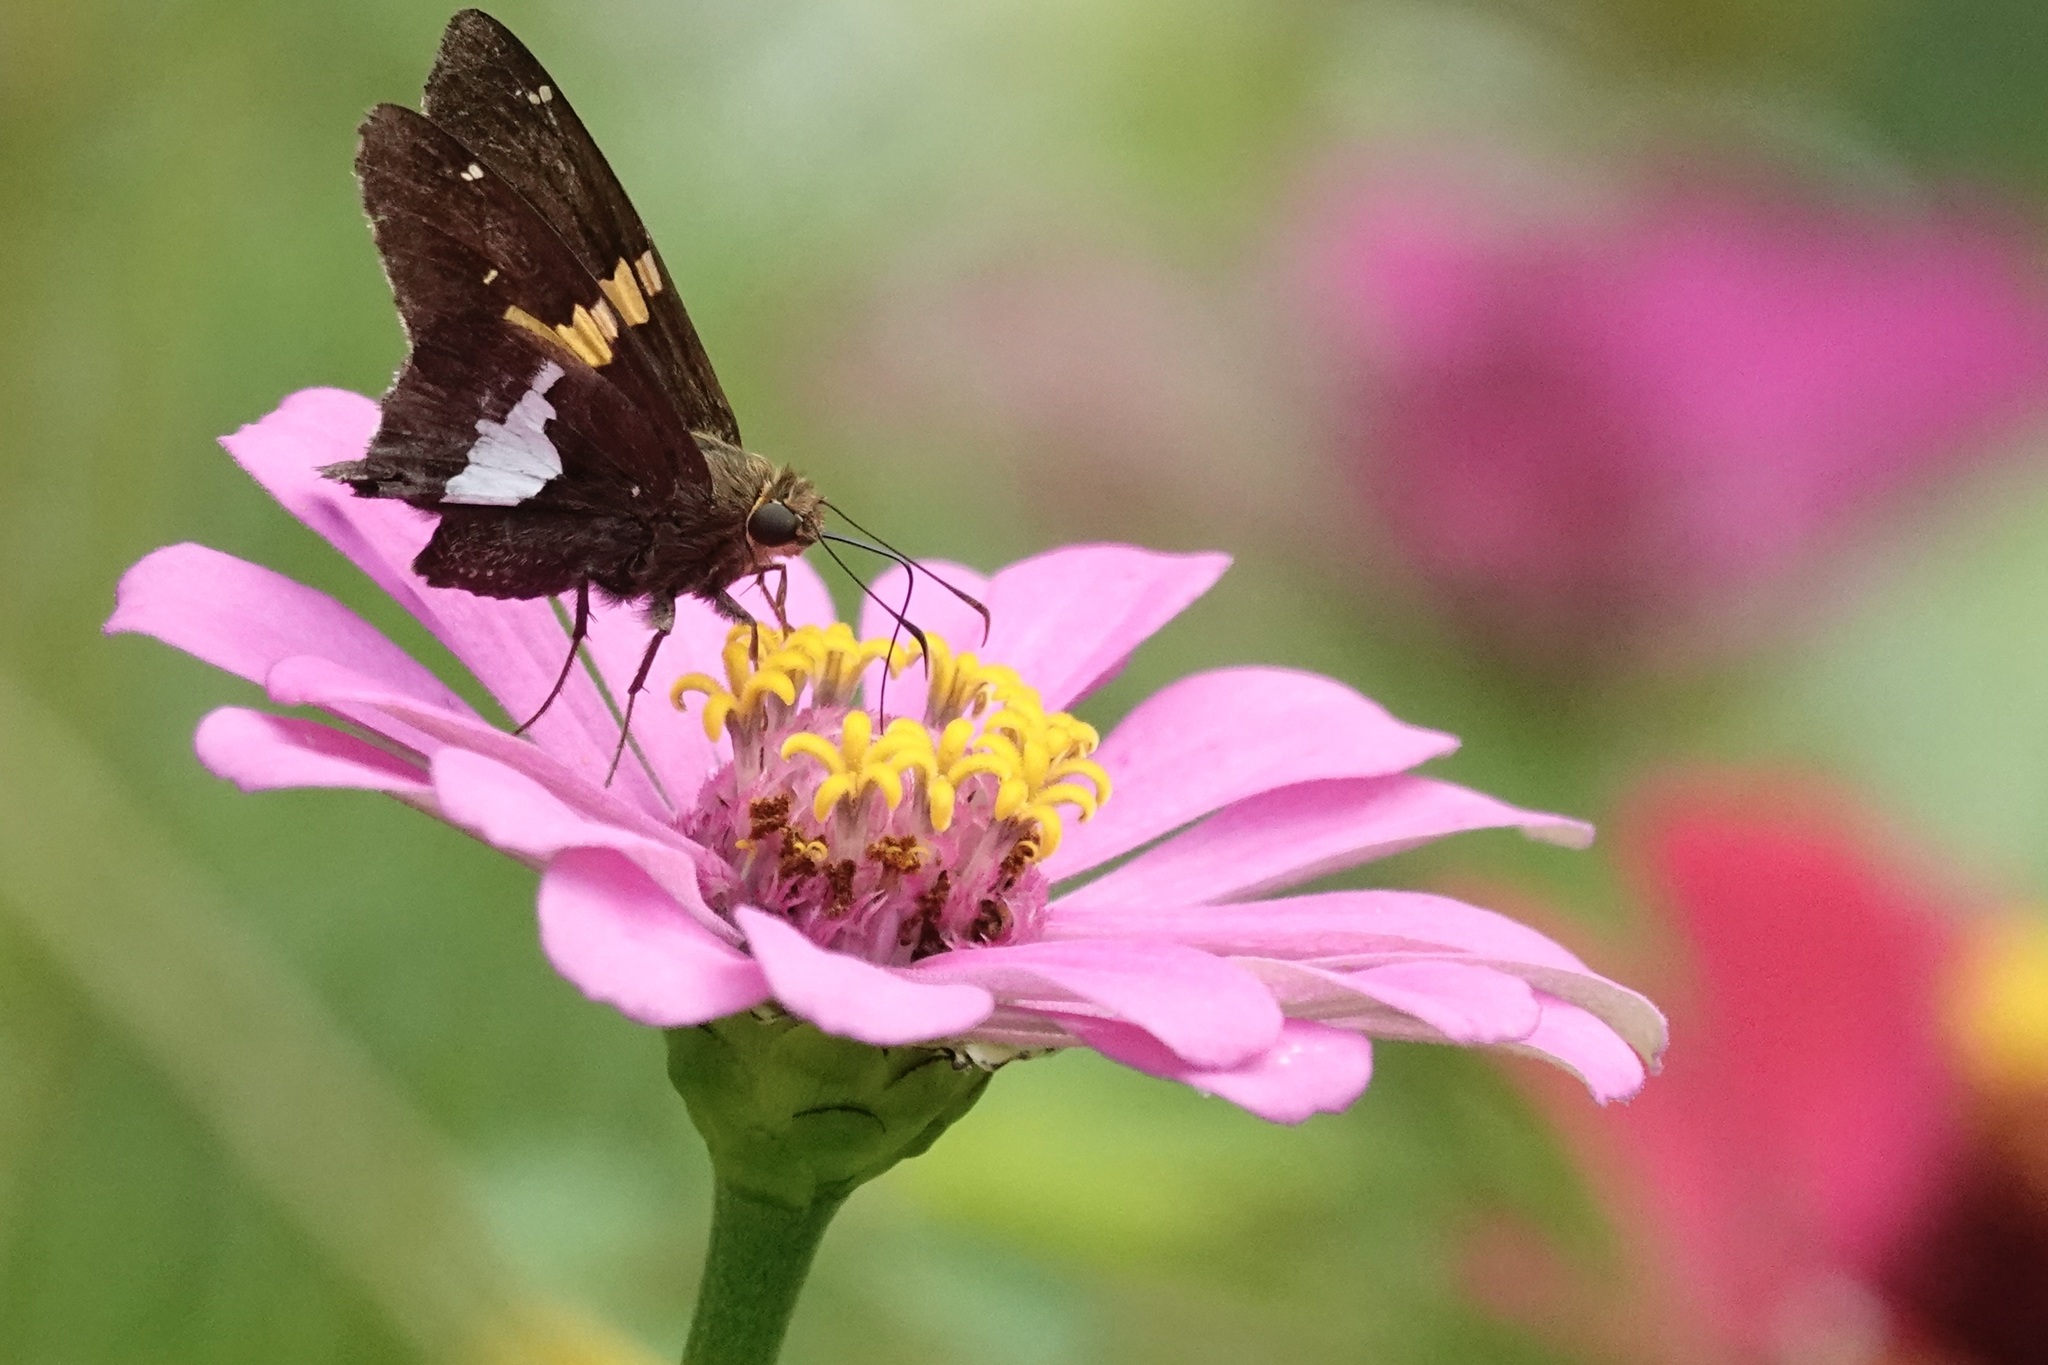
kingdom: Animalia
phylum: Arthropoda
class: Insecta
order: Lepidoptera
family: Hesperiidae
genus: Epargyreus
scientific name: Epargyreus clarus
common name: Silver-spotted skipper
